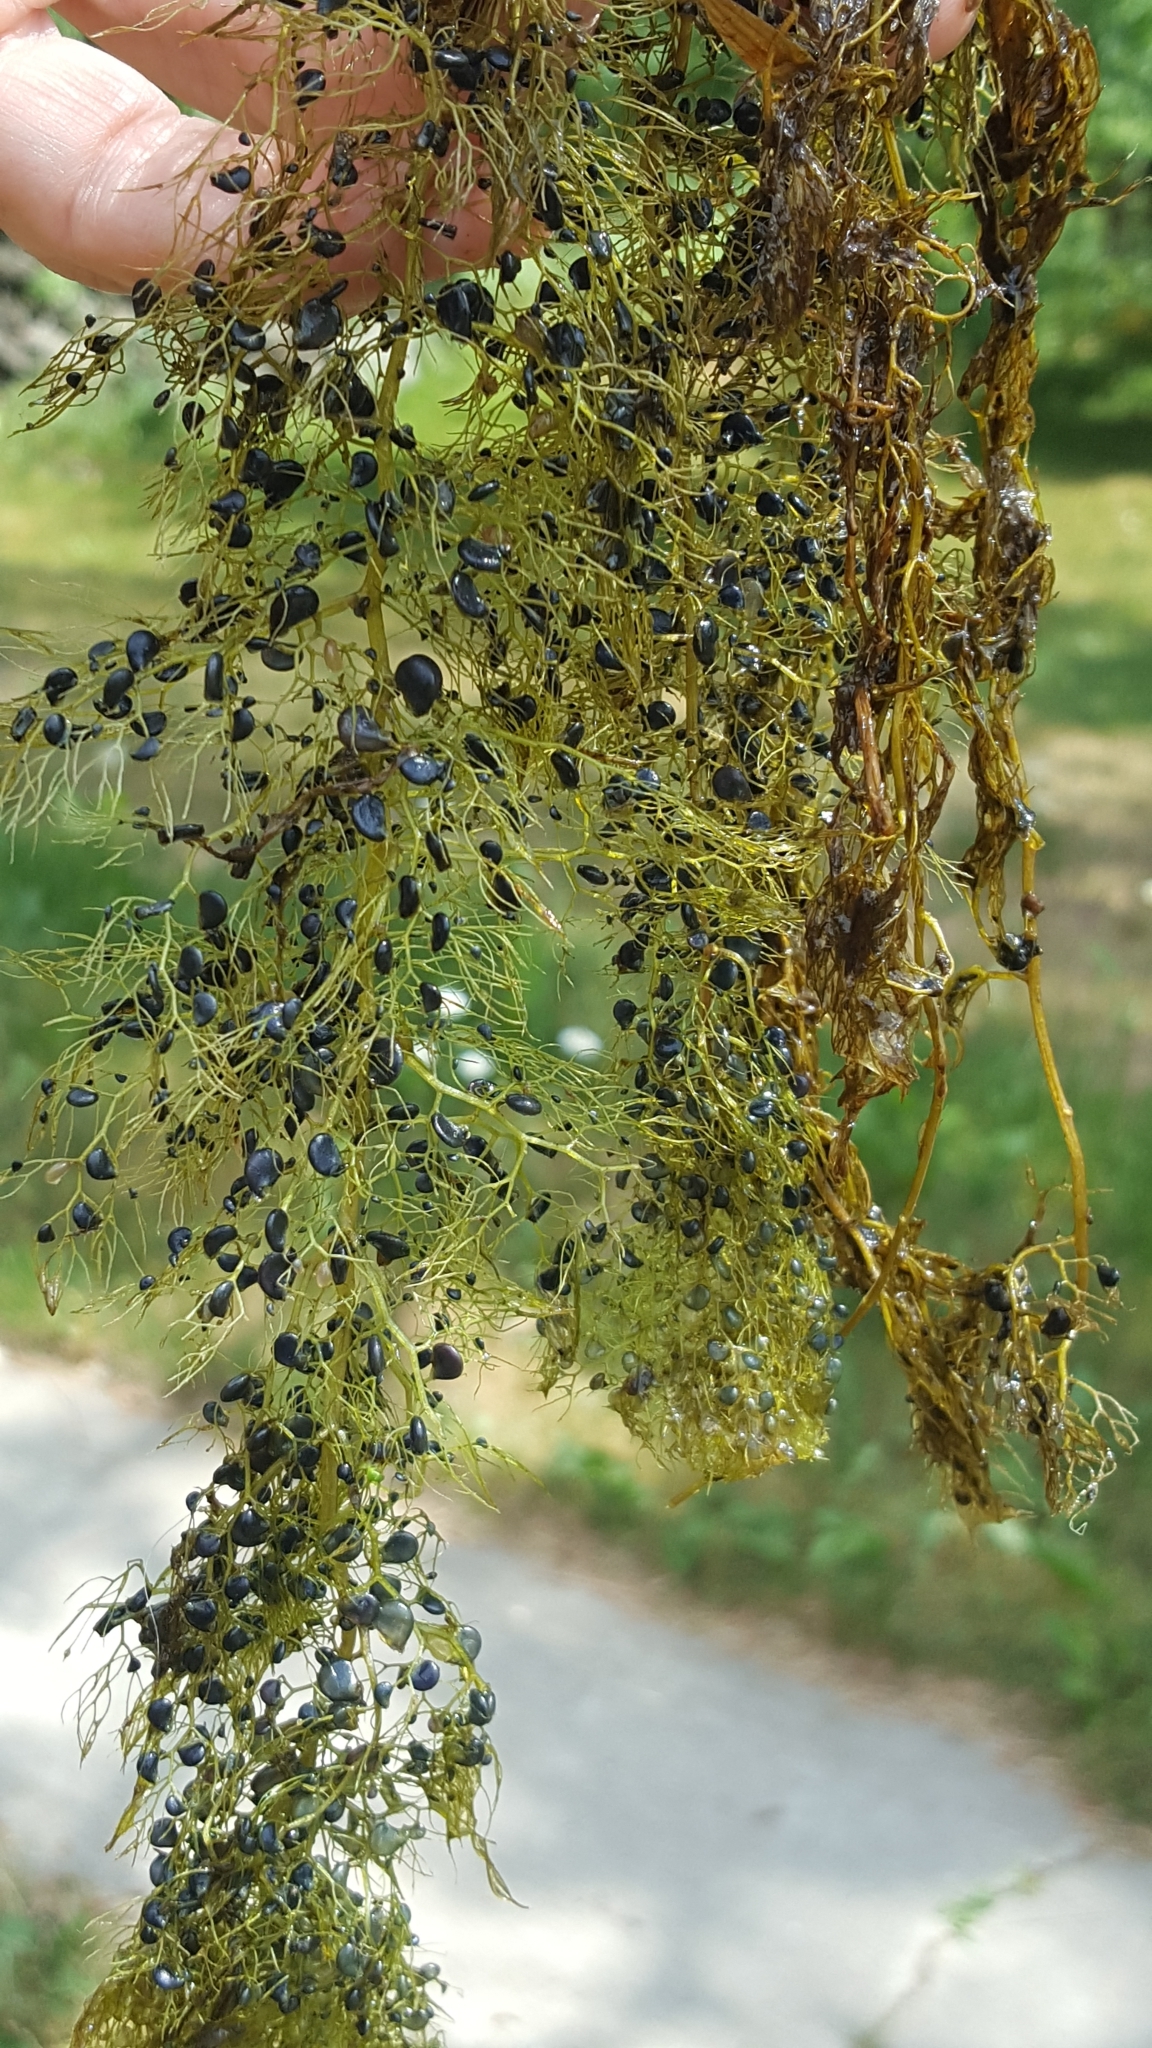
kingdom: Plantae
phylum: Tracheophyta
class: Magnoliopsida
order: Lamiales
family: Lentibulariaceae
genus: Utricularia
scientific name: Utricularia macrorhiza
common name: Common bladderwort
